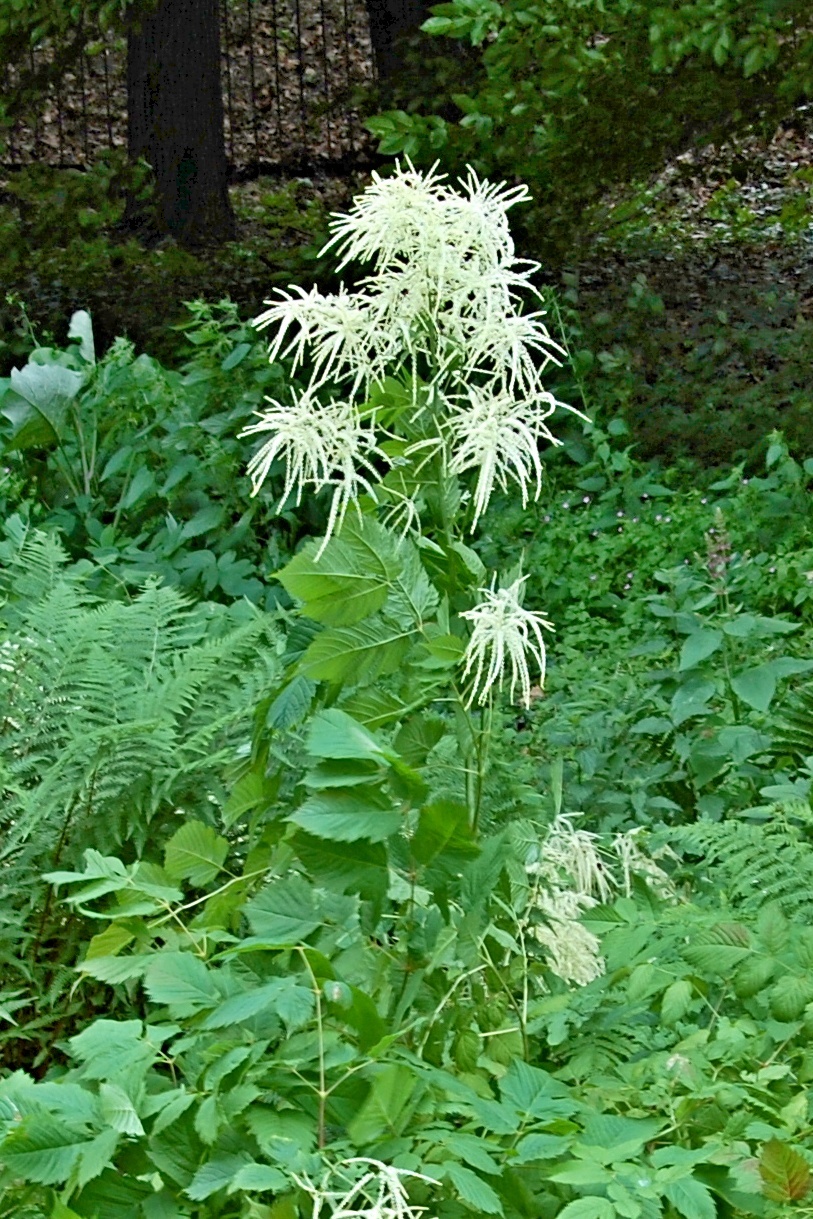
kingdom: Plantae
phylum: Tracheophyta
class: Magnoliopsida
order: Rosales
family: Rosaceae
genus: Aruncus
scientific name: Aruncus dioicus
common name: Buck's-beard
